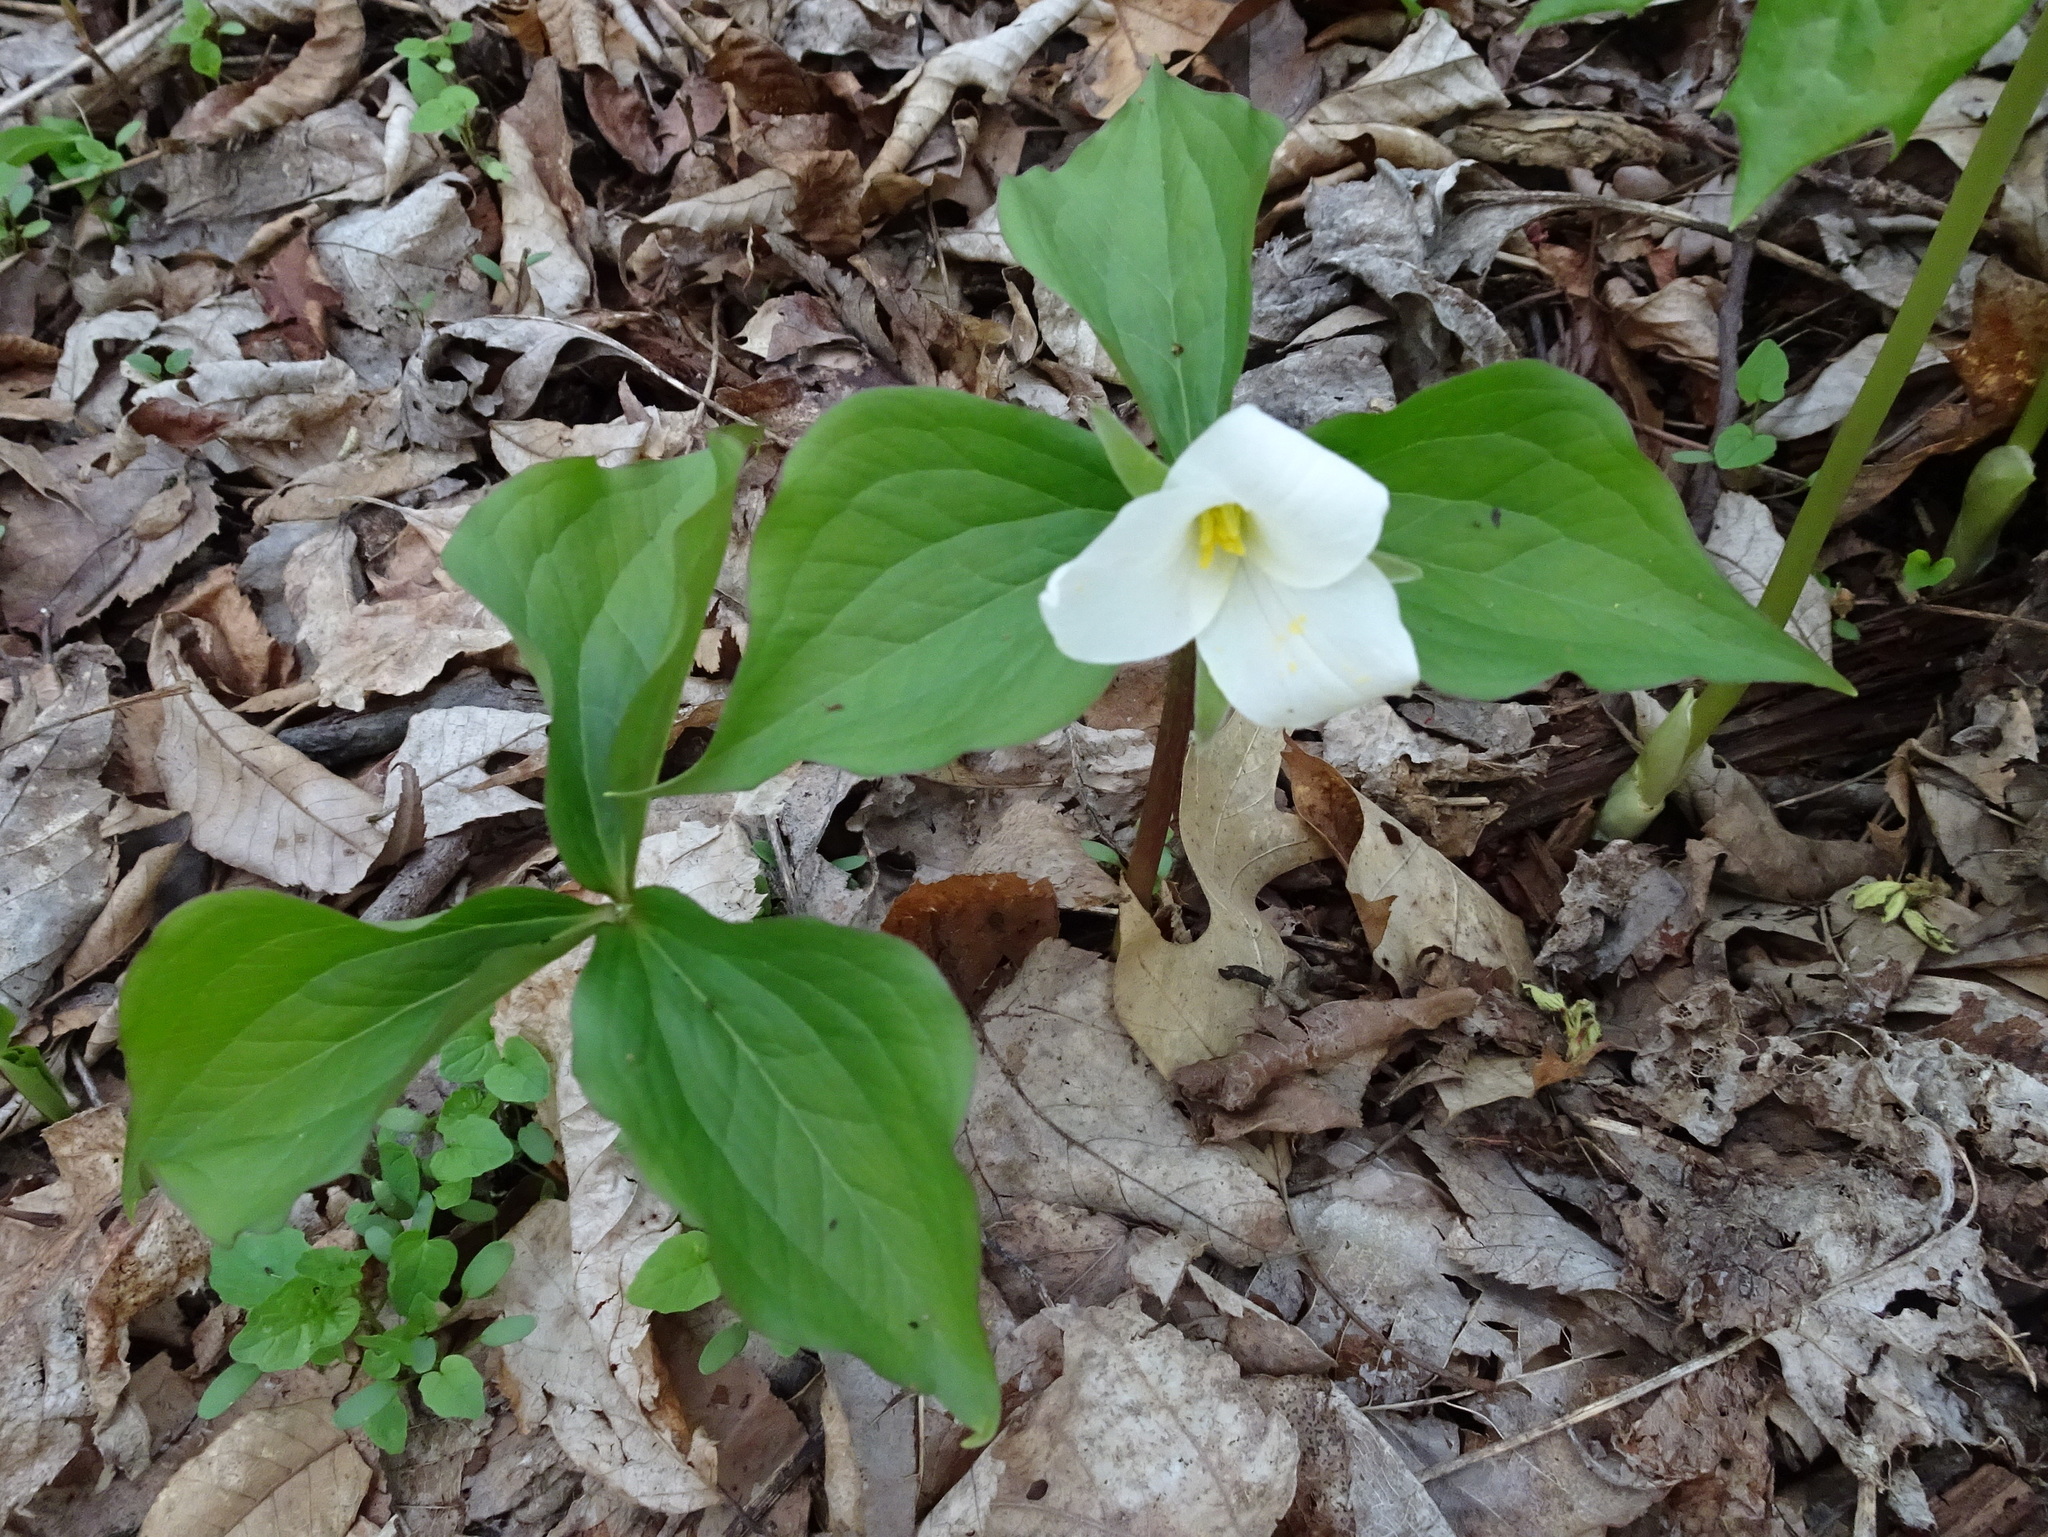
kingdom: Plantae
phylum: Tracheophyta
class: Liliopsida
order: Liliales
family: Melanthiaceae
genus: Trillium
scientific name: Trillium grandiflorum
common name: Great white trillium
